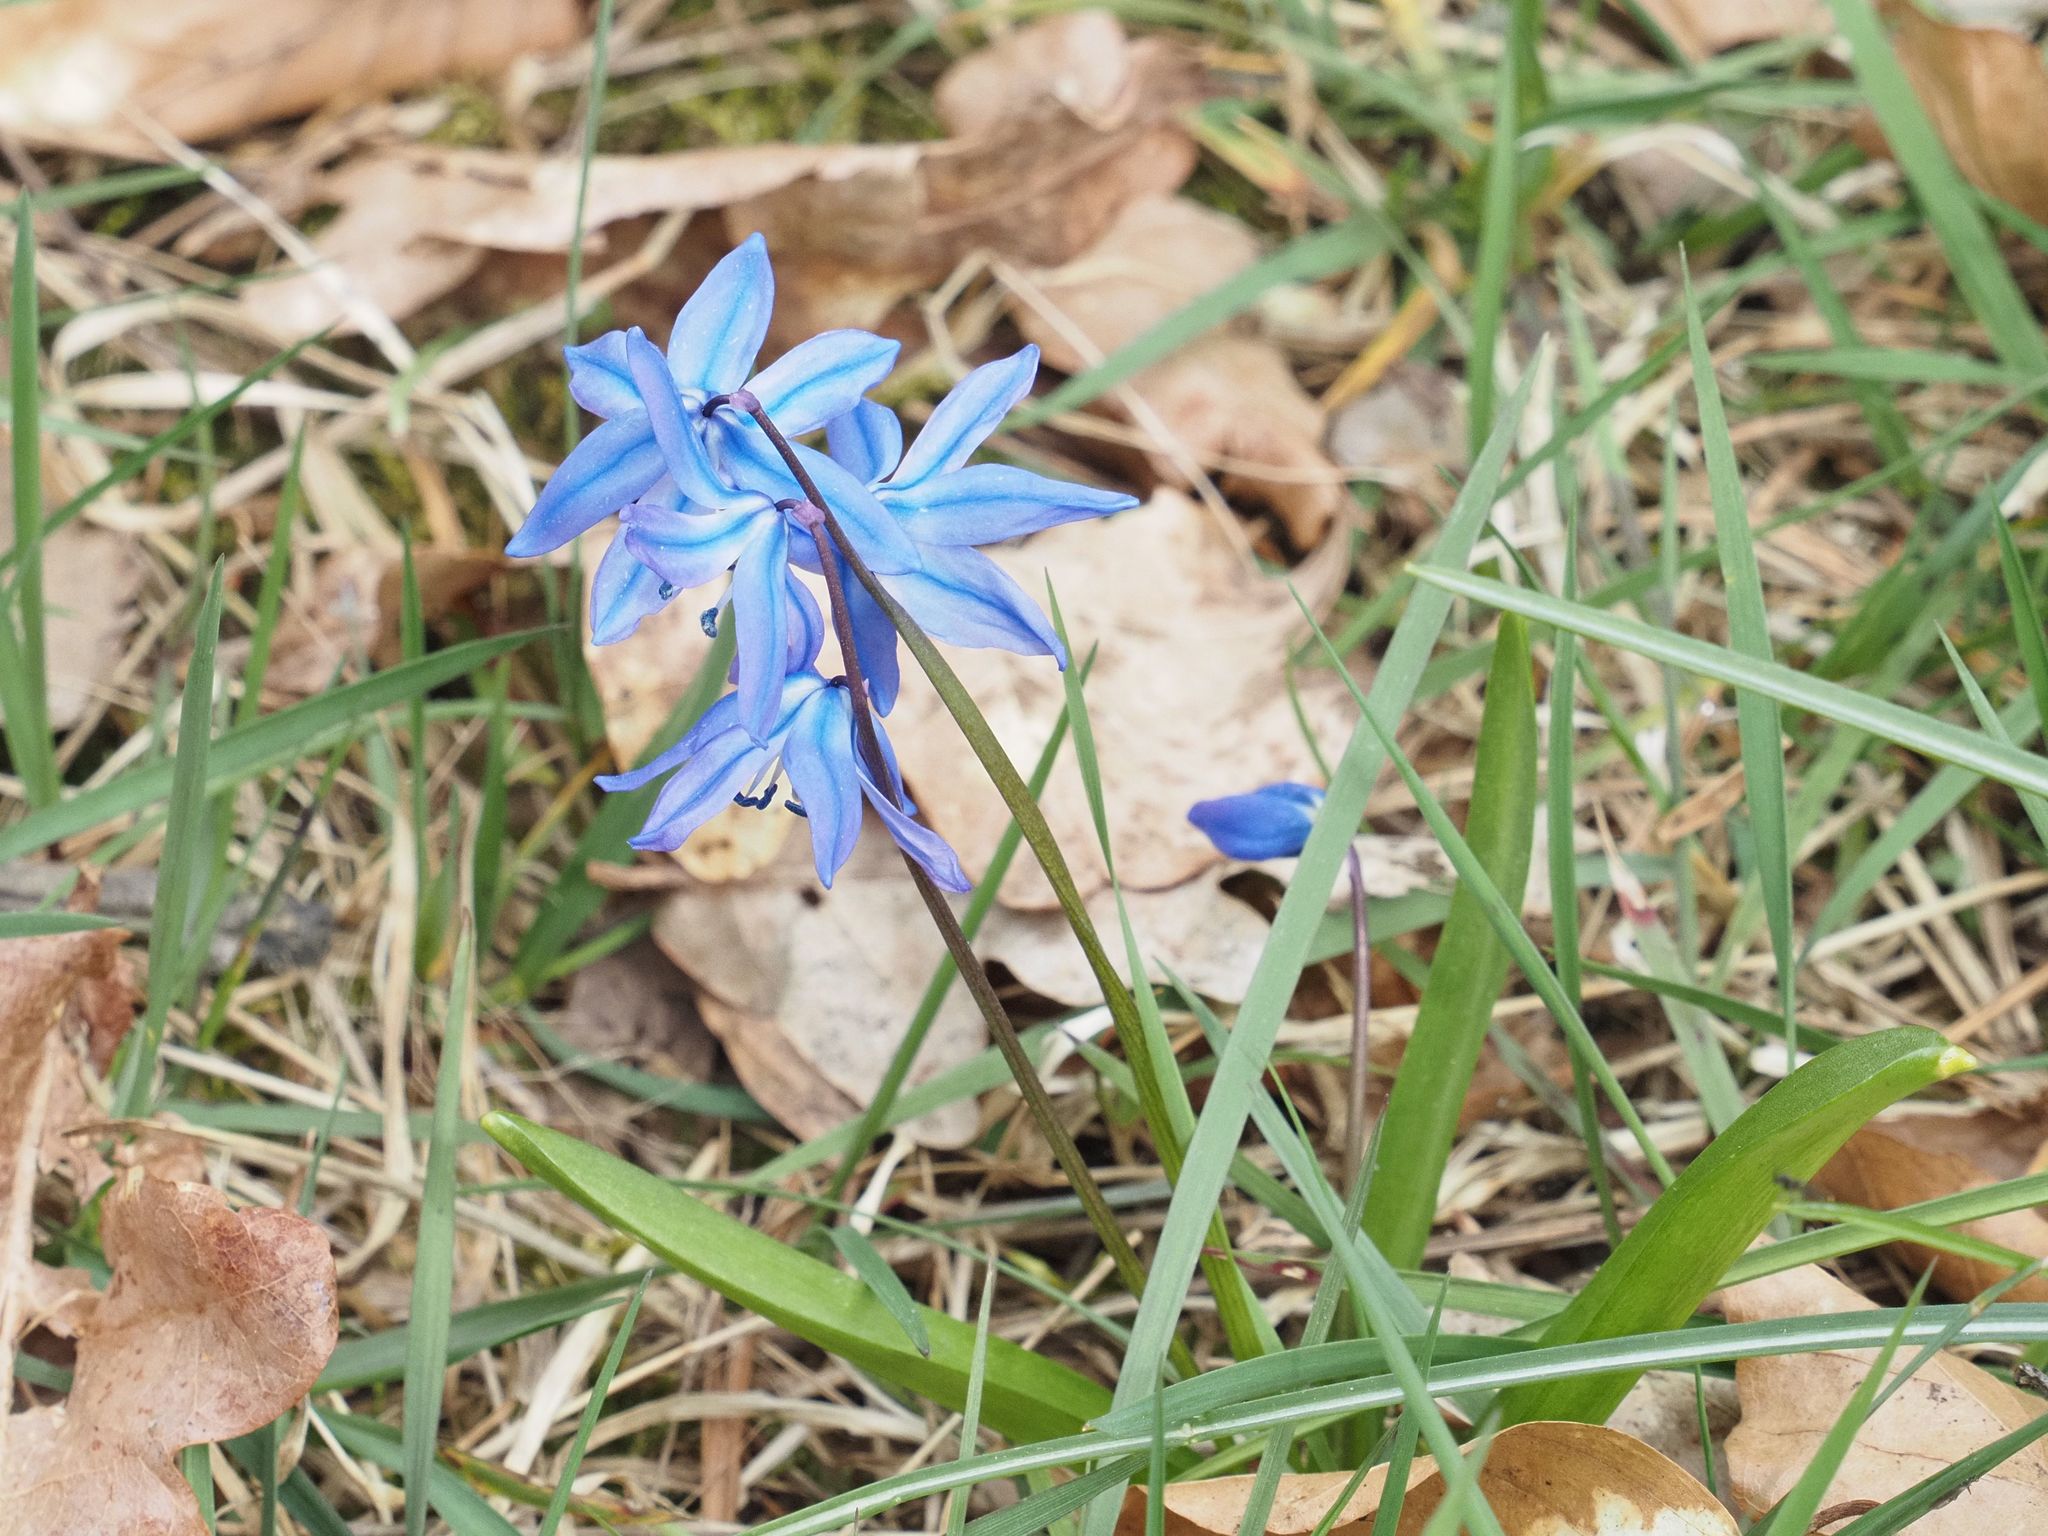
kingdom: Plantae
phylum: Tracheophyta
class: Liliopsida
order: Asparagales
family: Asparagaceae
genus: Scilla
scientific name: Scilla siberica
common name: Siberian squill
